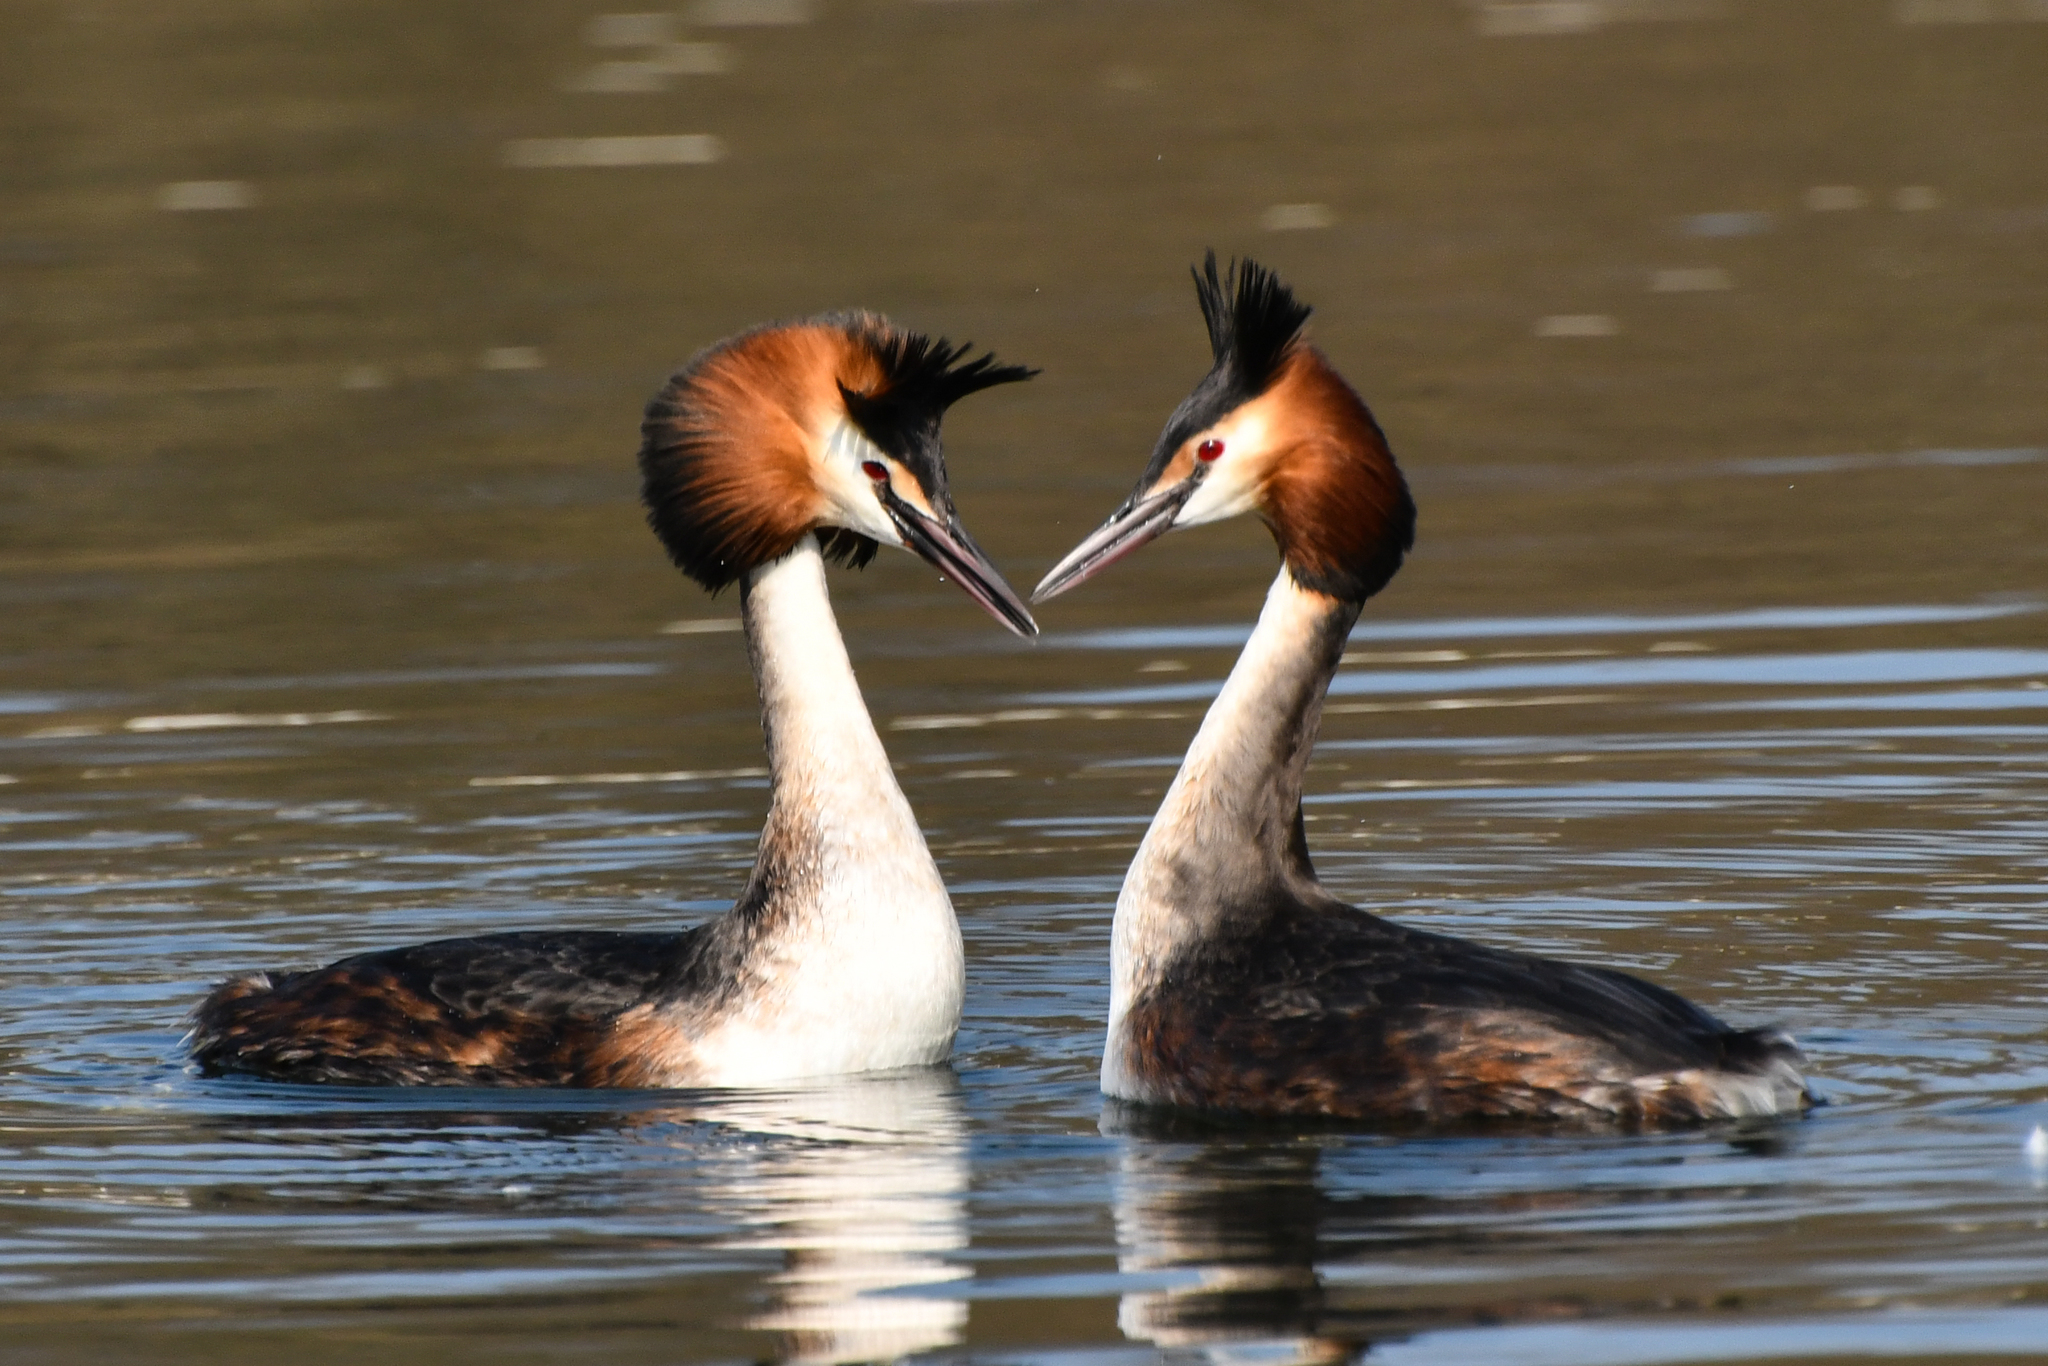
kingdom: Animalia
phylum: Chordata
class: Aves
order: Podicipediformes
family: Podicipedidae
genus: Podiceps
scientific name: Podiceps cristatus
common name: Great crested grebe
